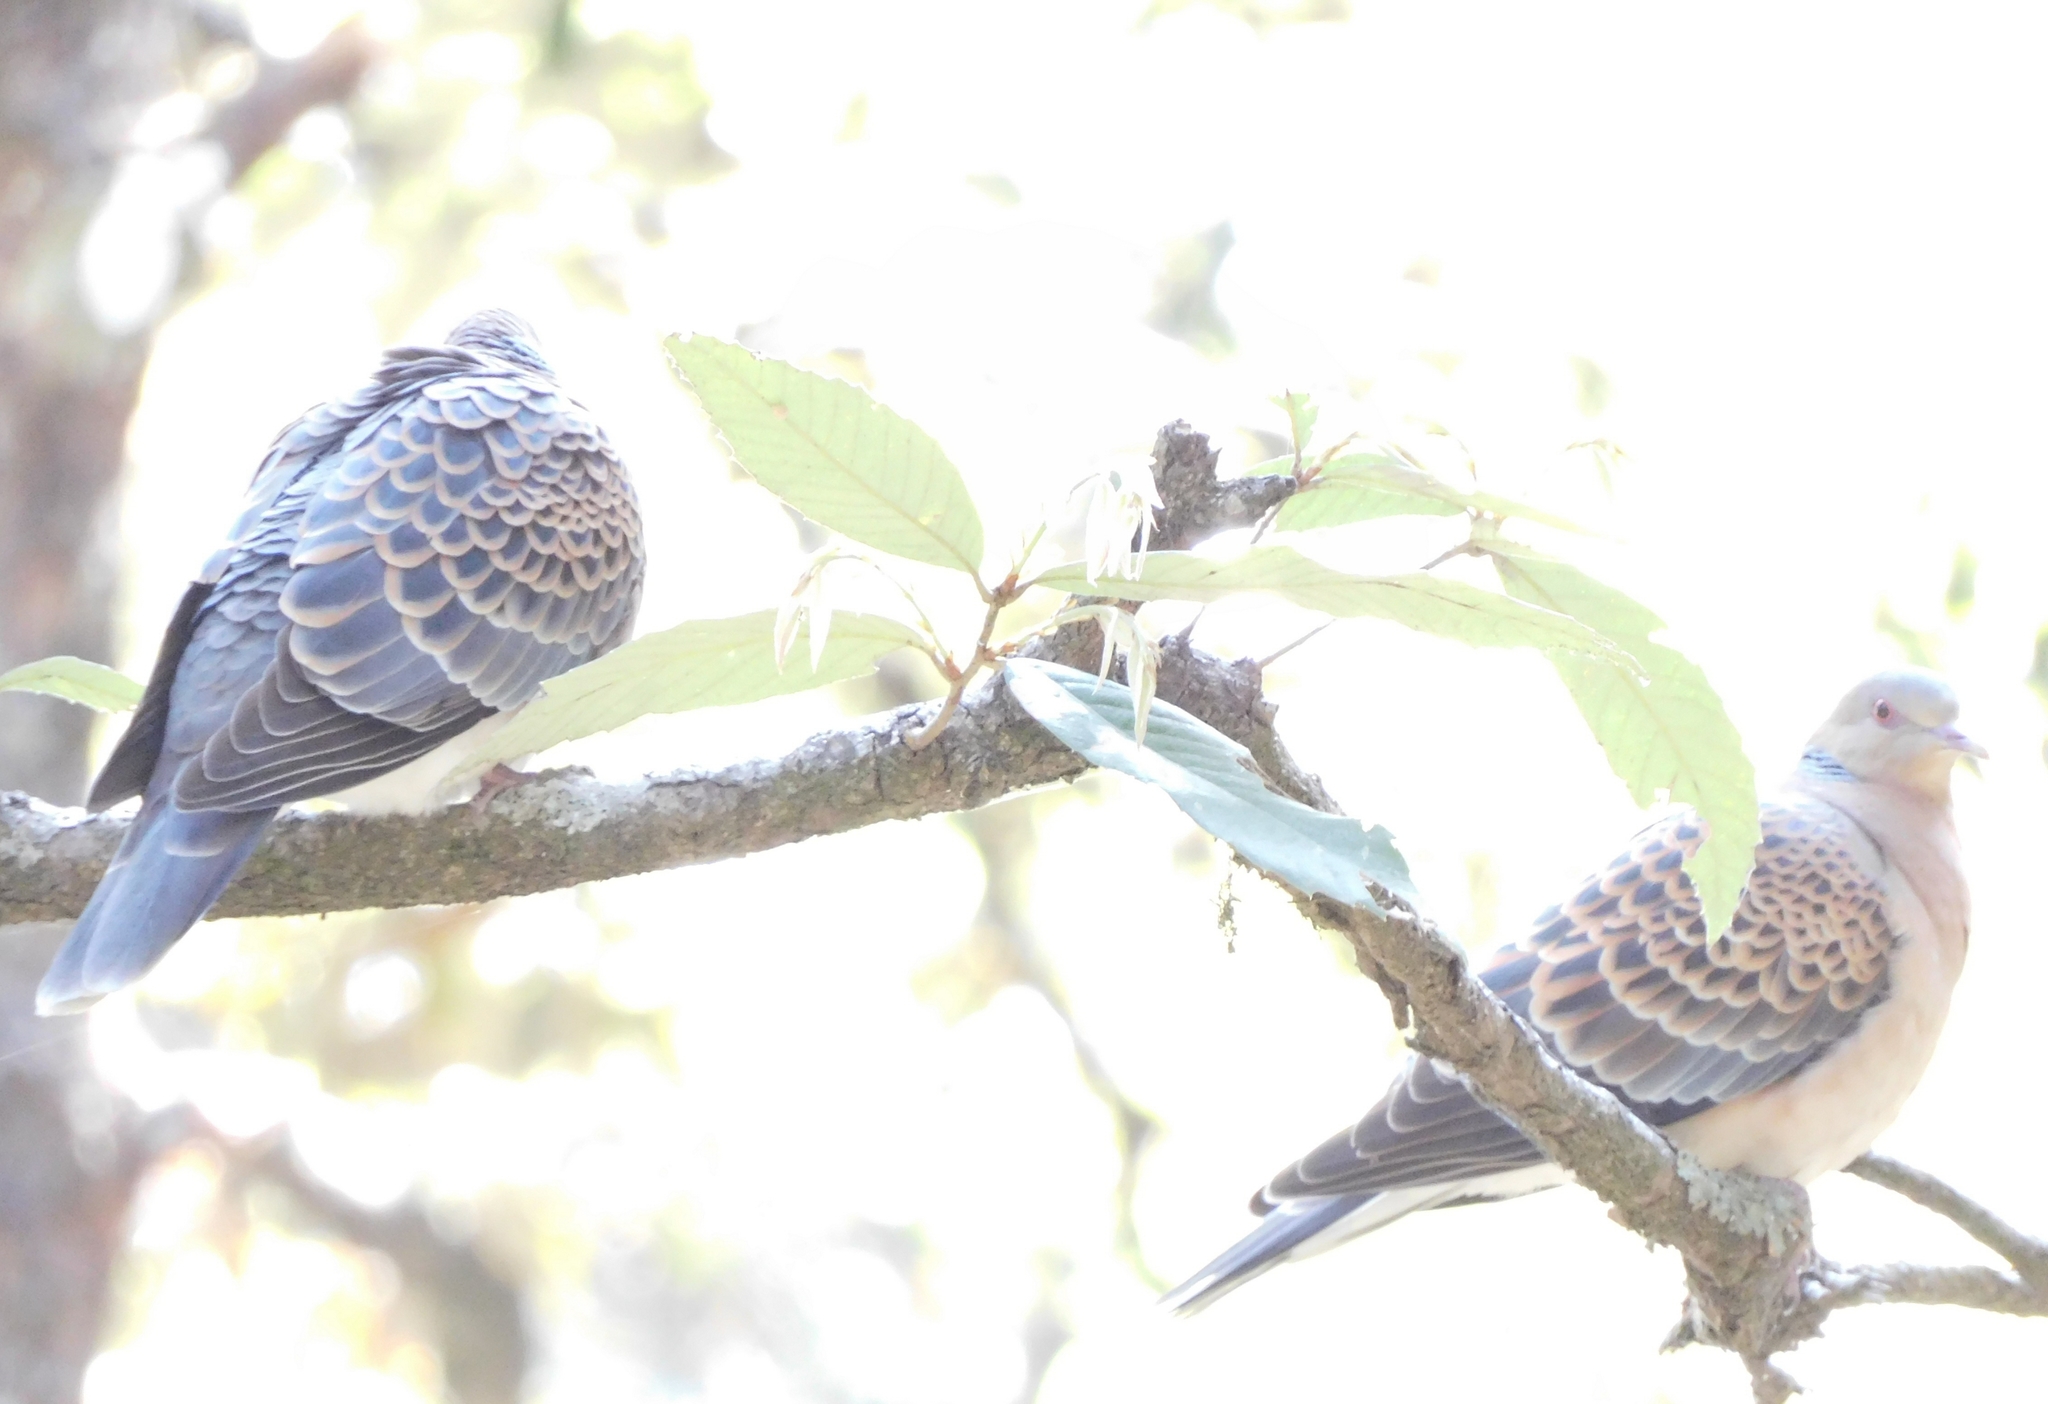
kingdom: Animalia
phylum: Chordata
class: Aves
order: Columbiformes
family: Columbidae
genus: Streptopelia
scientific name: Streptopelia orientalis
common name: Oriental turtle dove
